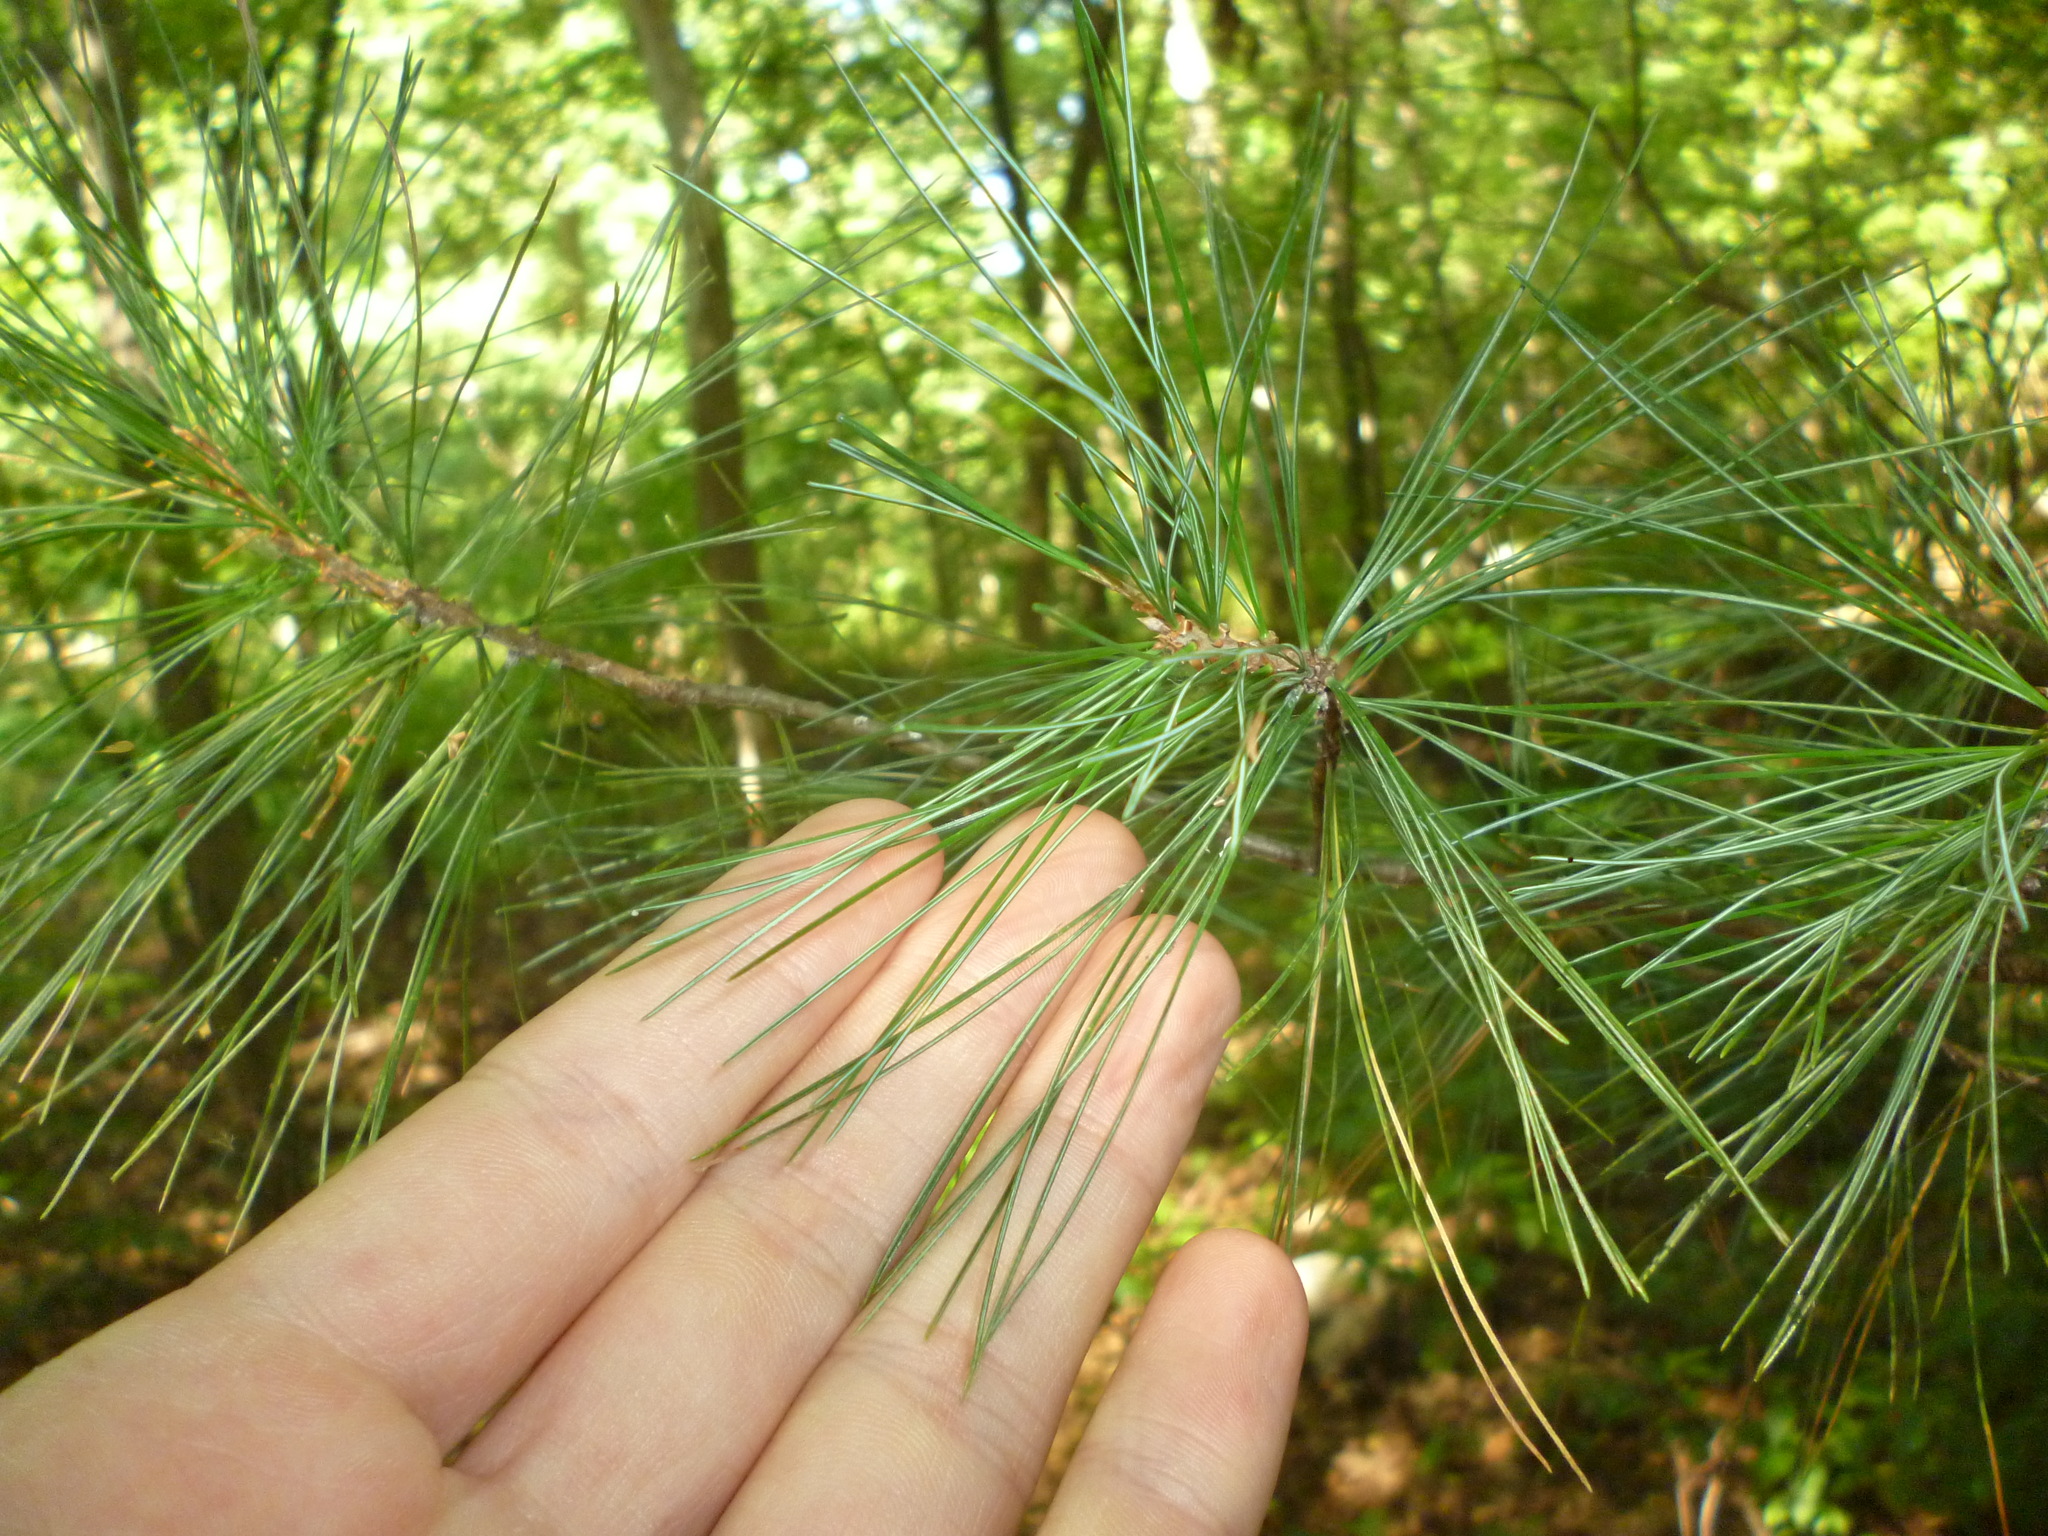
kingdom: Plantae
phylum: Tracheophyta
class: Pinopsida
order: Pinales
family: Pinaceae
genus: Pinus
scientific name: Pinus strobus
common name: Weymouth pine
